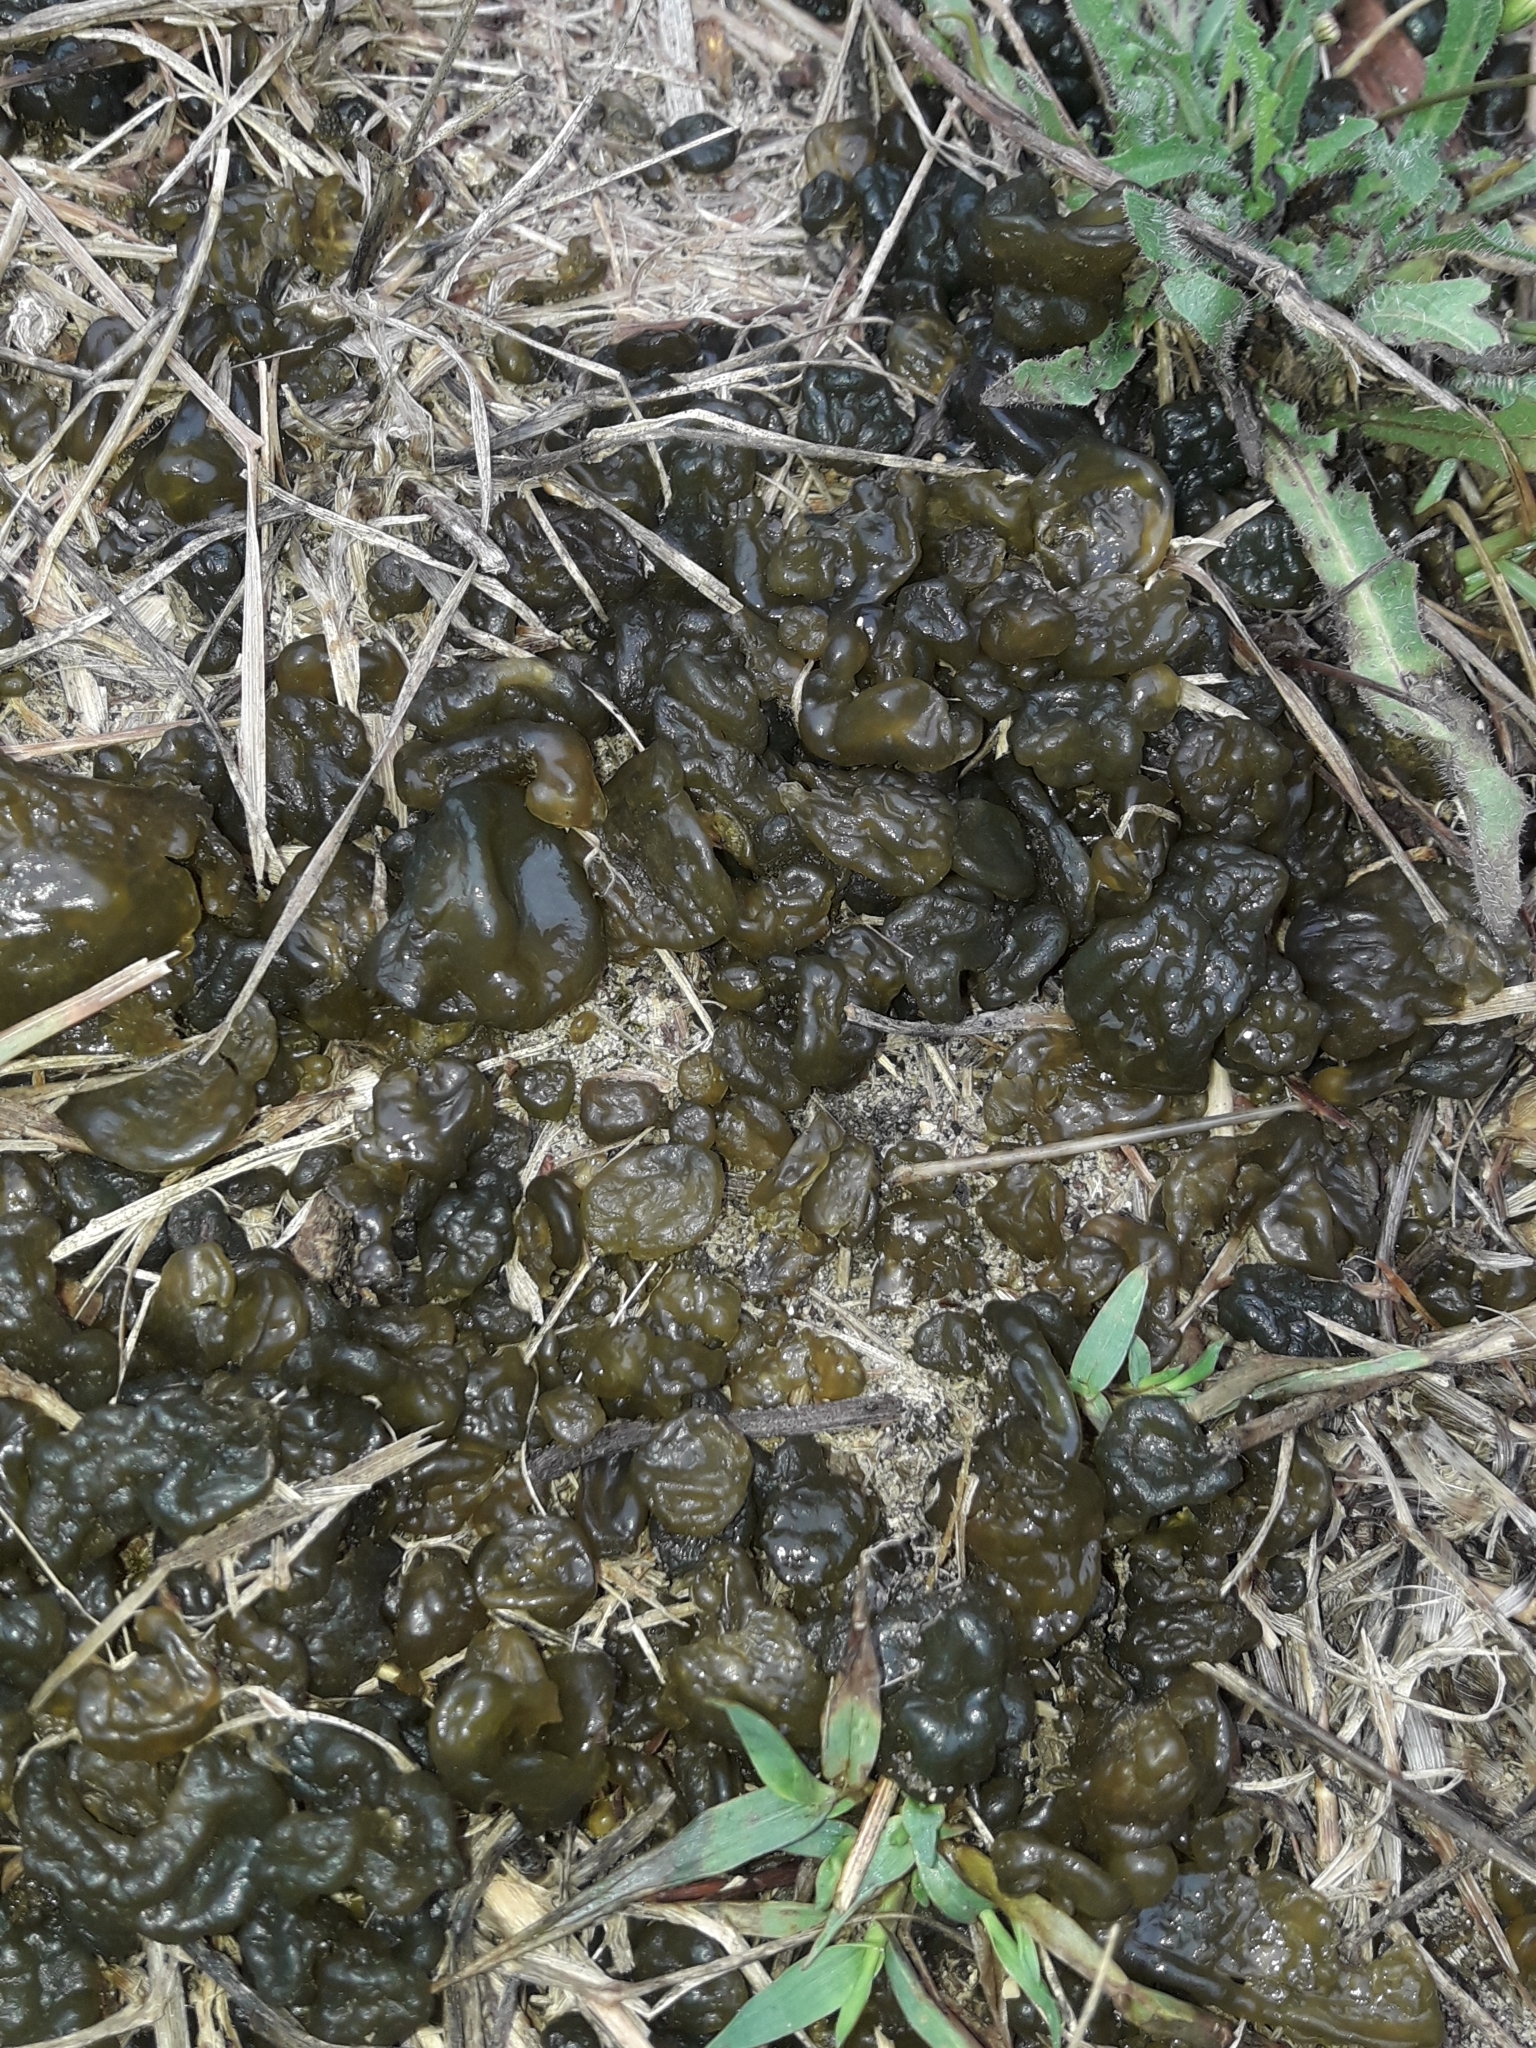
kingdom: Bacteria
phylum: Cyanobacteria
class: Cyanobacteriia
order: Cyanobacteriales
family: Nostocaceae
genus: Nostoc
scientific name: Nostoc commune
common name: Star jelly
